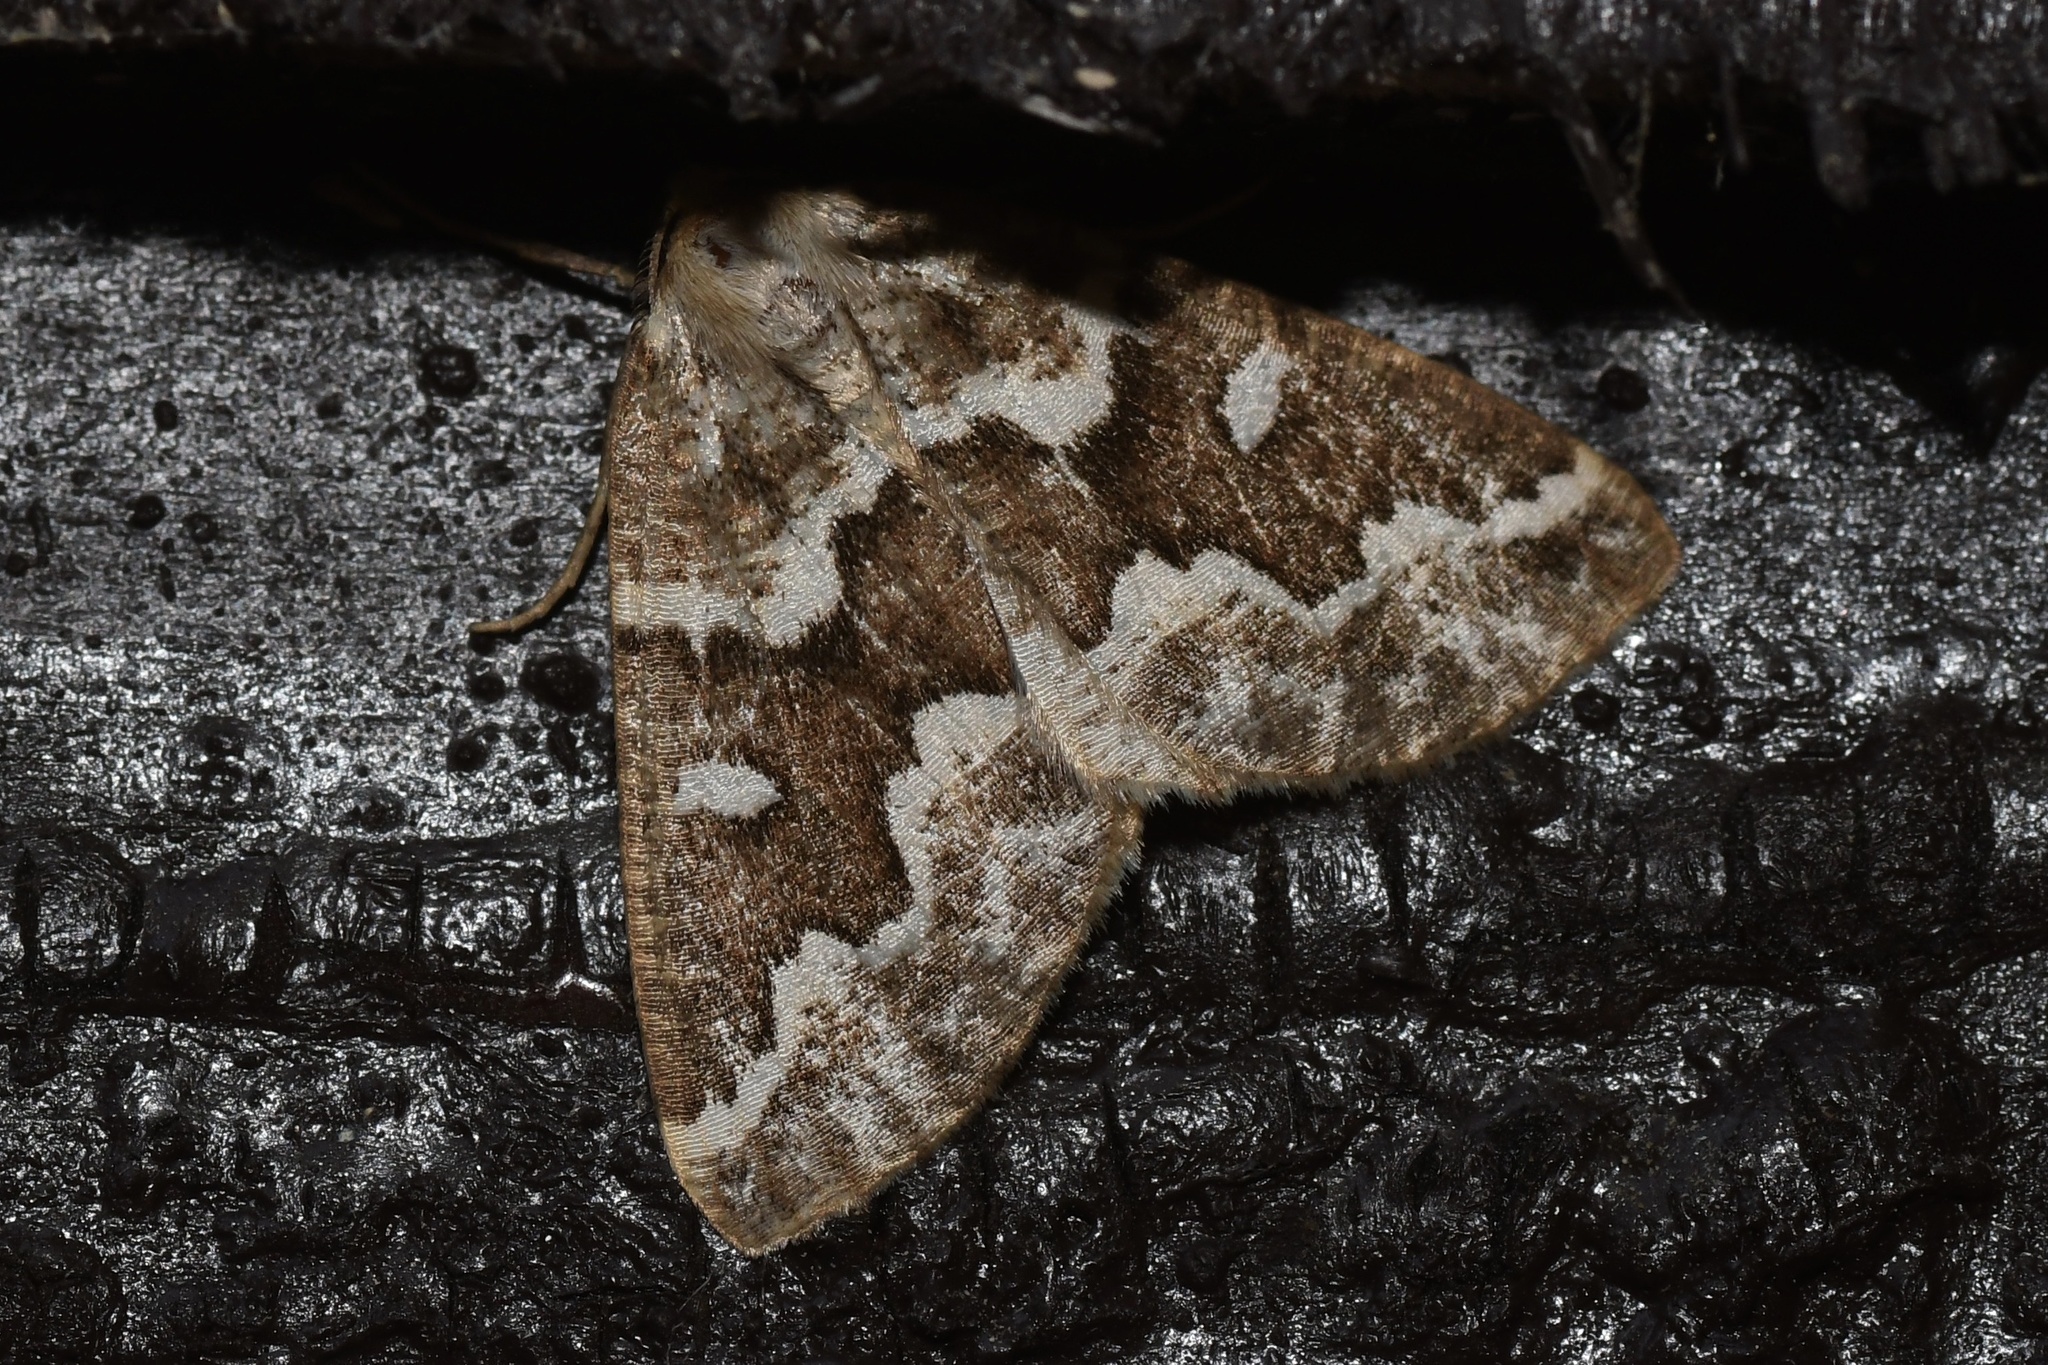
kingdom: Animalia
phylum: Arthropoda
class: Insecta
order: Lepidoptera
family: Geometridae
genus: Caripeta
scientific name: Caripeta divisata
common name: Gray spruce looper
